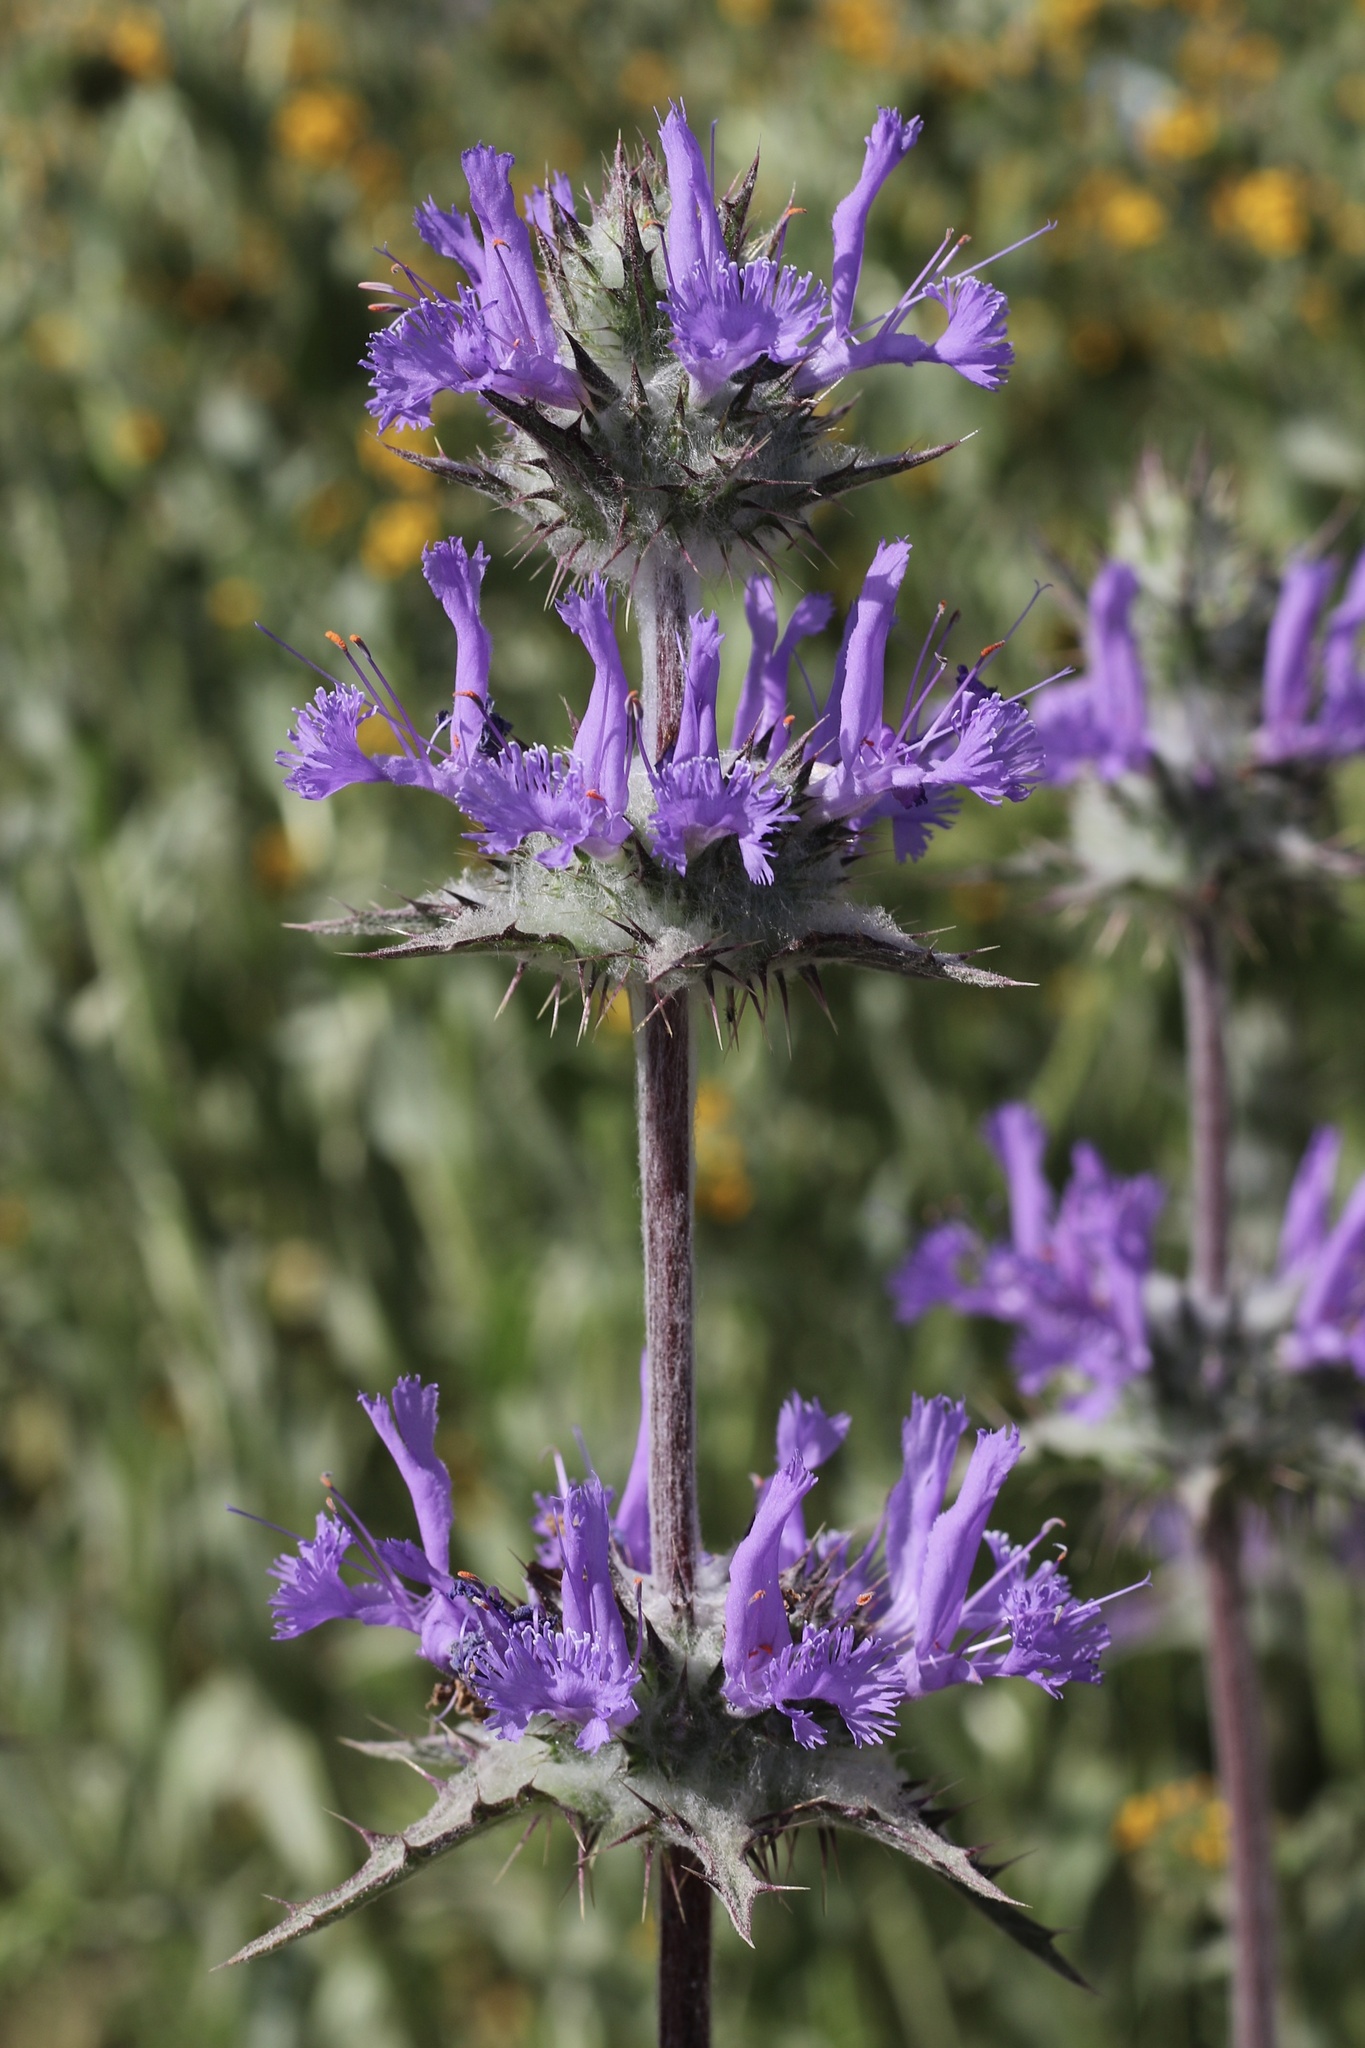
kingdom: Plantae
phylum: Tracheophyta
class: Magnoliopsida
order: Lamiales
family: Lamiaceae
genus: Salvia
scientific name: Salvia carduacea
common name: Thistle sage
